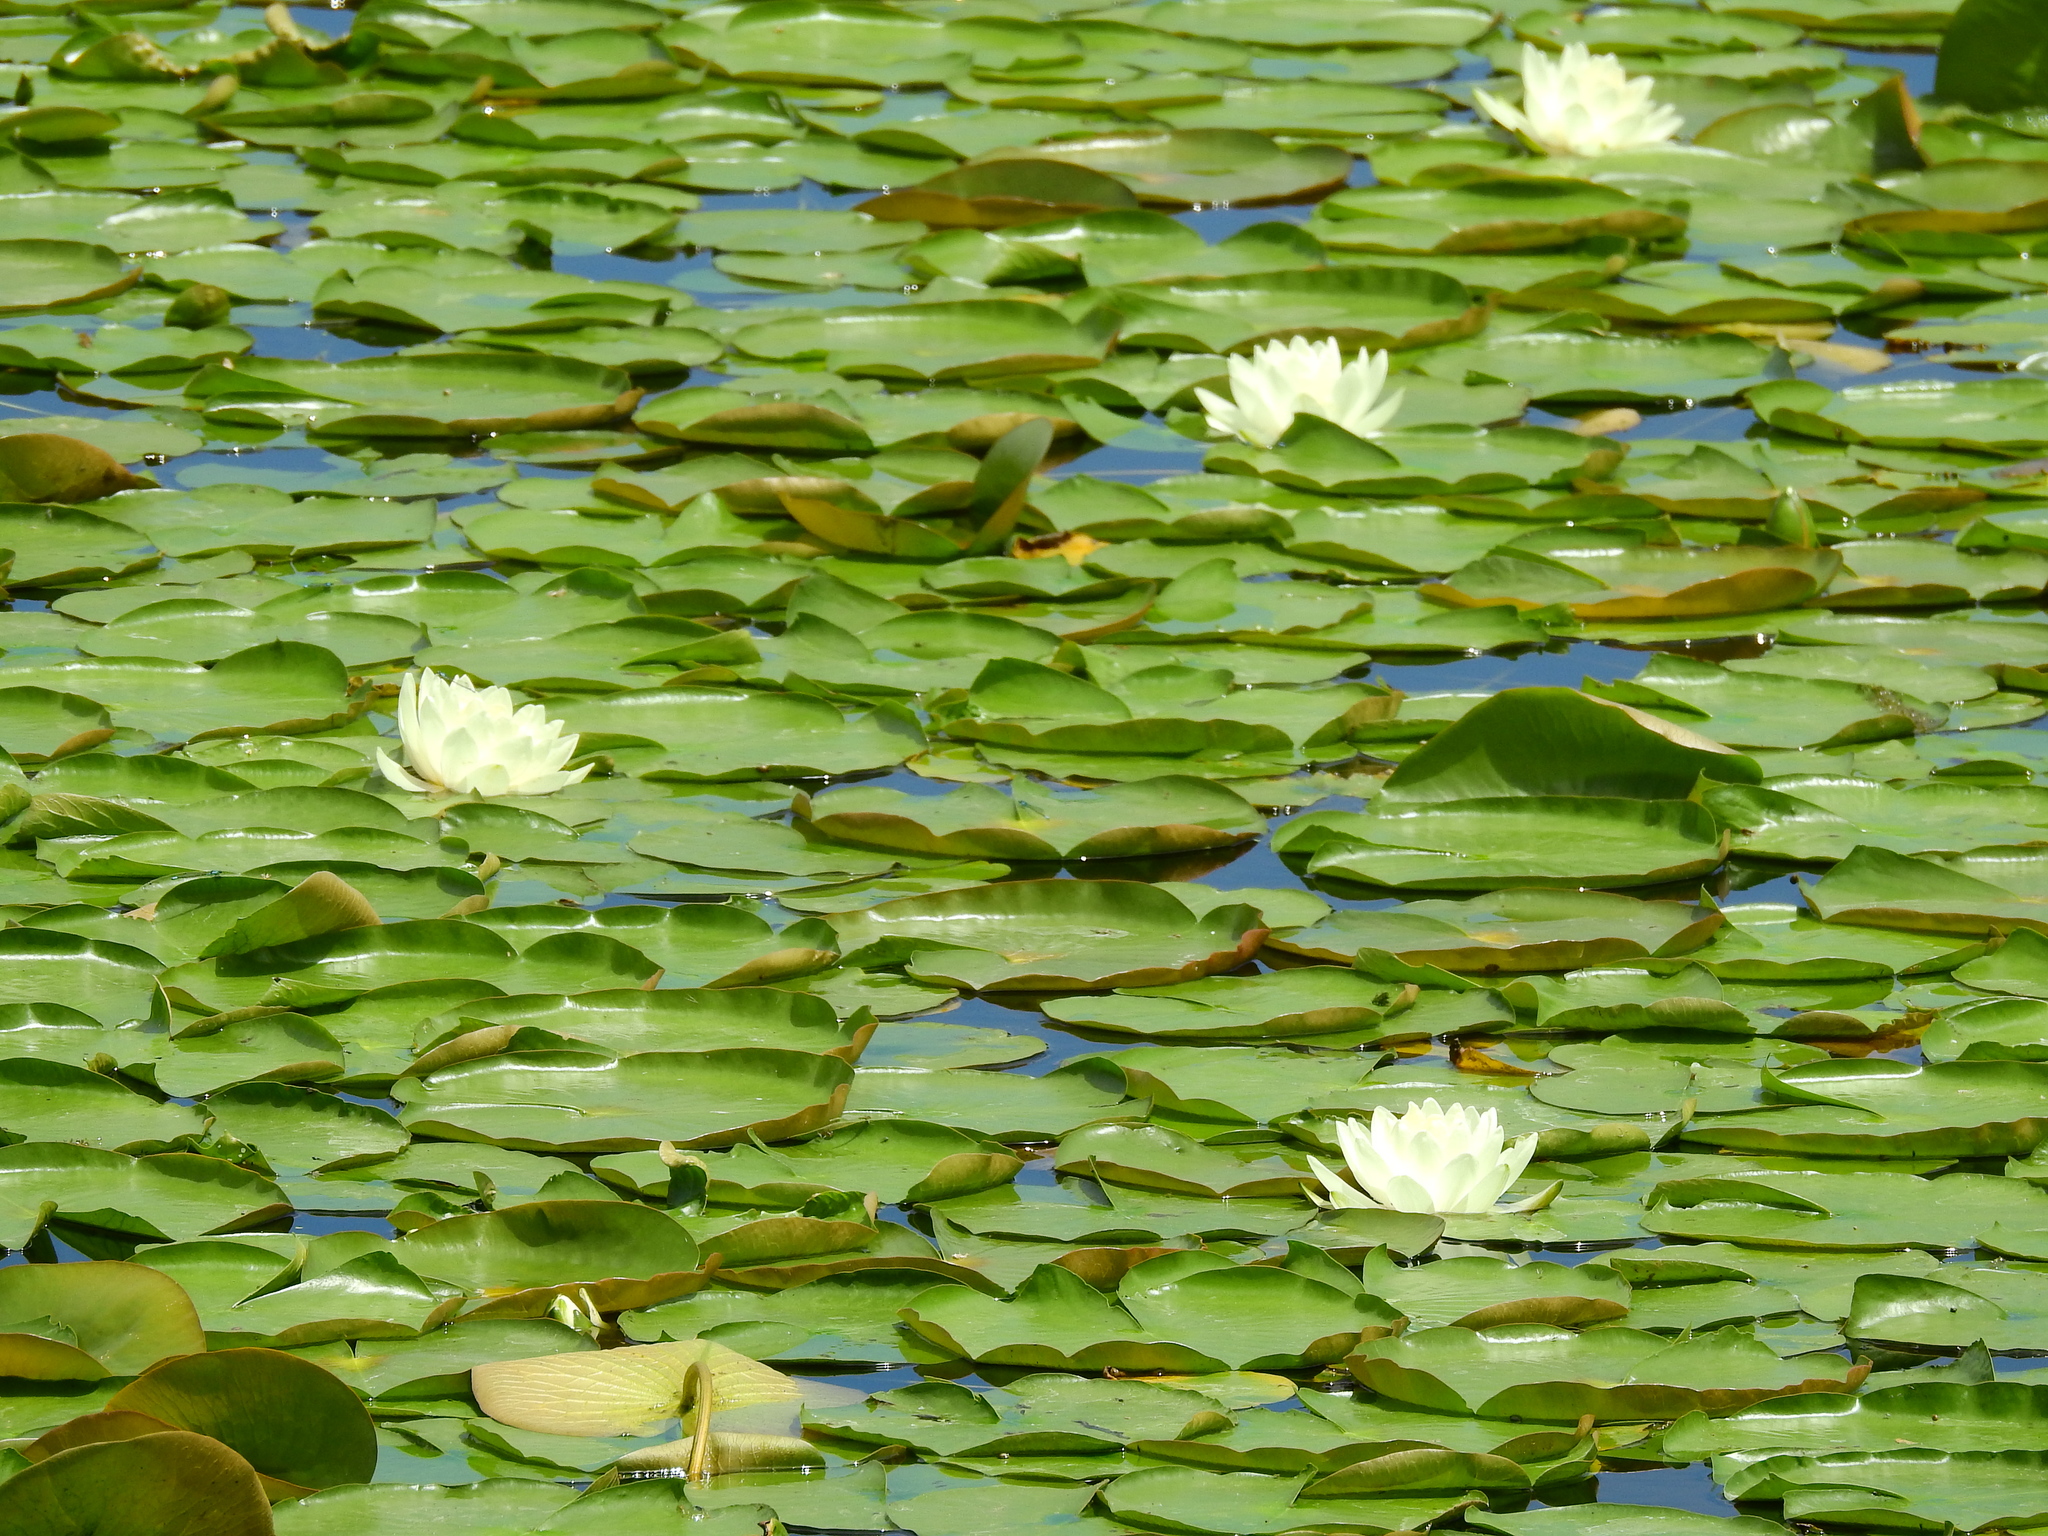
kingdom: Plantae
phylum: Tracheophyta
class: Magnoliopsida
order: Nymphaeales
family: Nymphaeaceae
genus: Nymphaea
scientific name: Nymphaea odorata
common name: Fragrant water-lily
